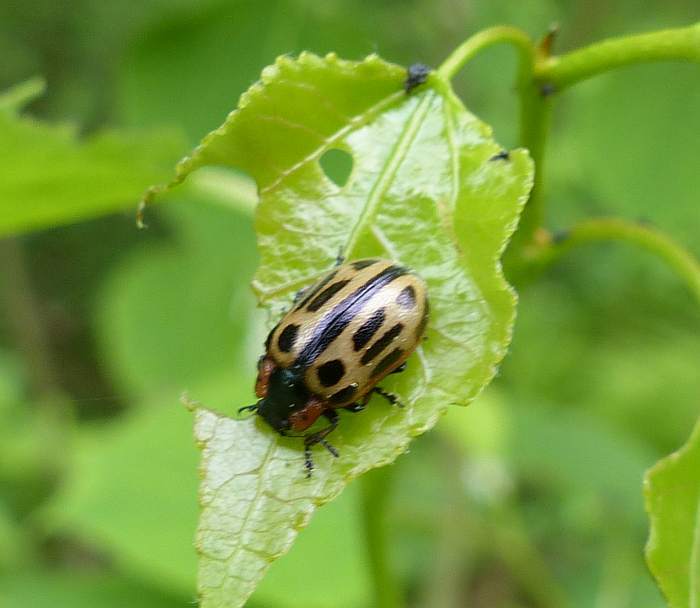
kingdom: Animalia
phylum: Arthropoda
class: Insecta
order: Coleoptera
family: Chrysomelidae
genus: Aethiopocassis
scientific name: Aethiopocassis scripta
